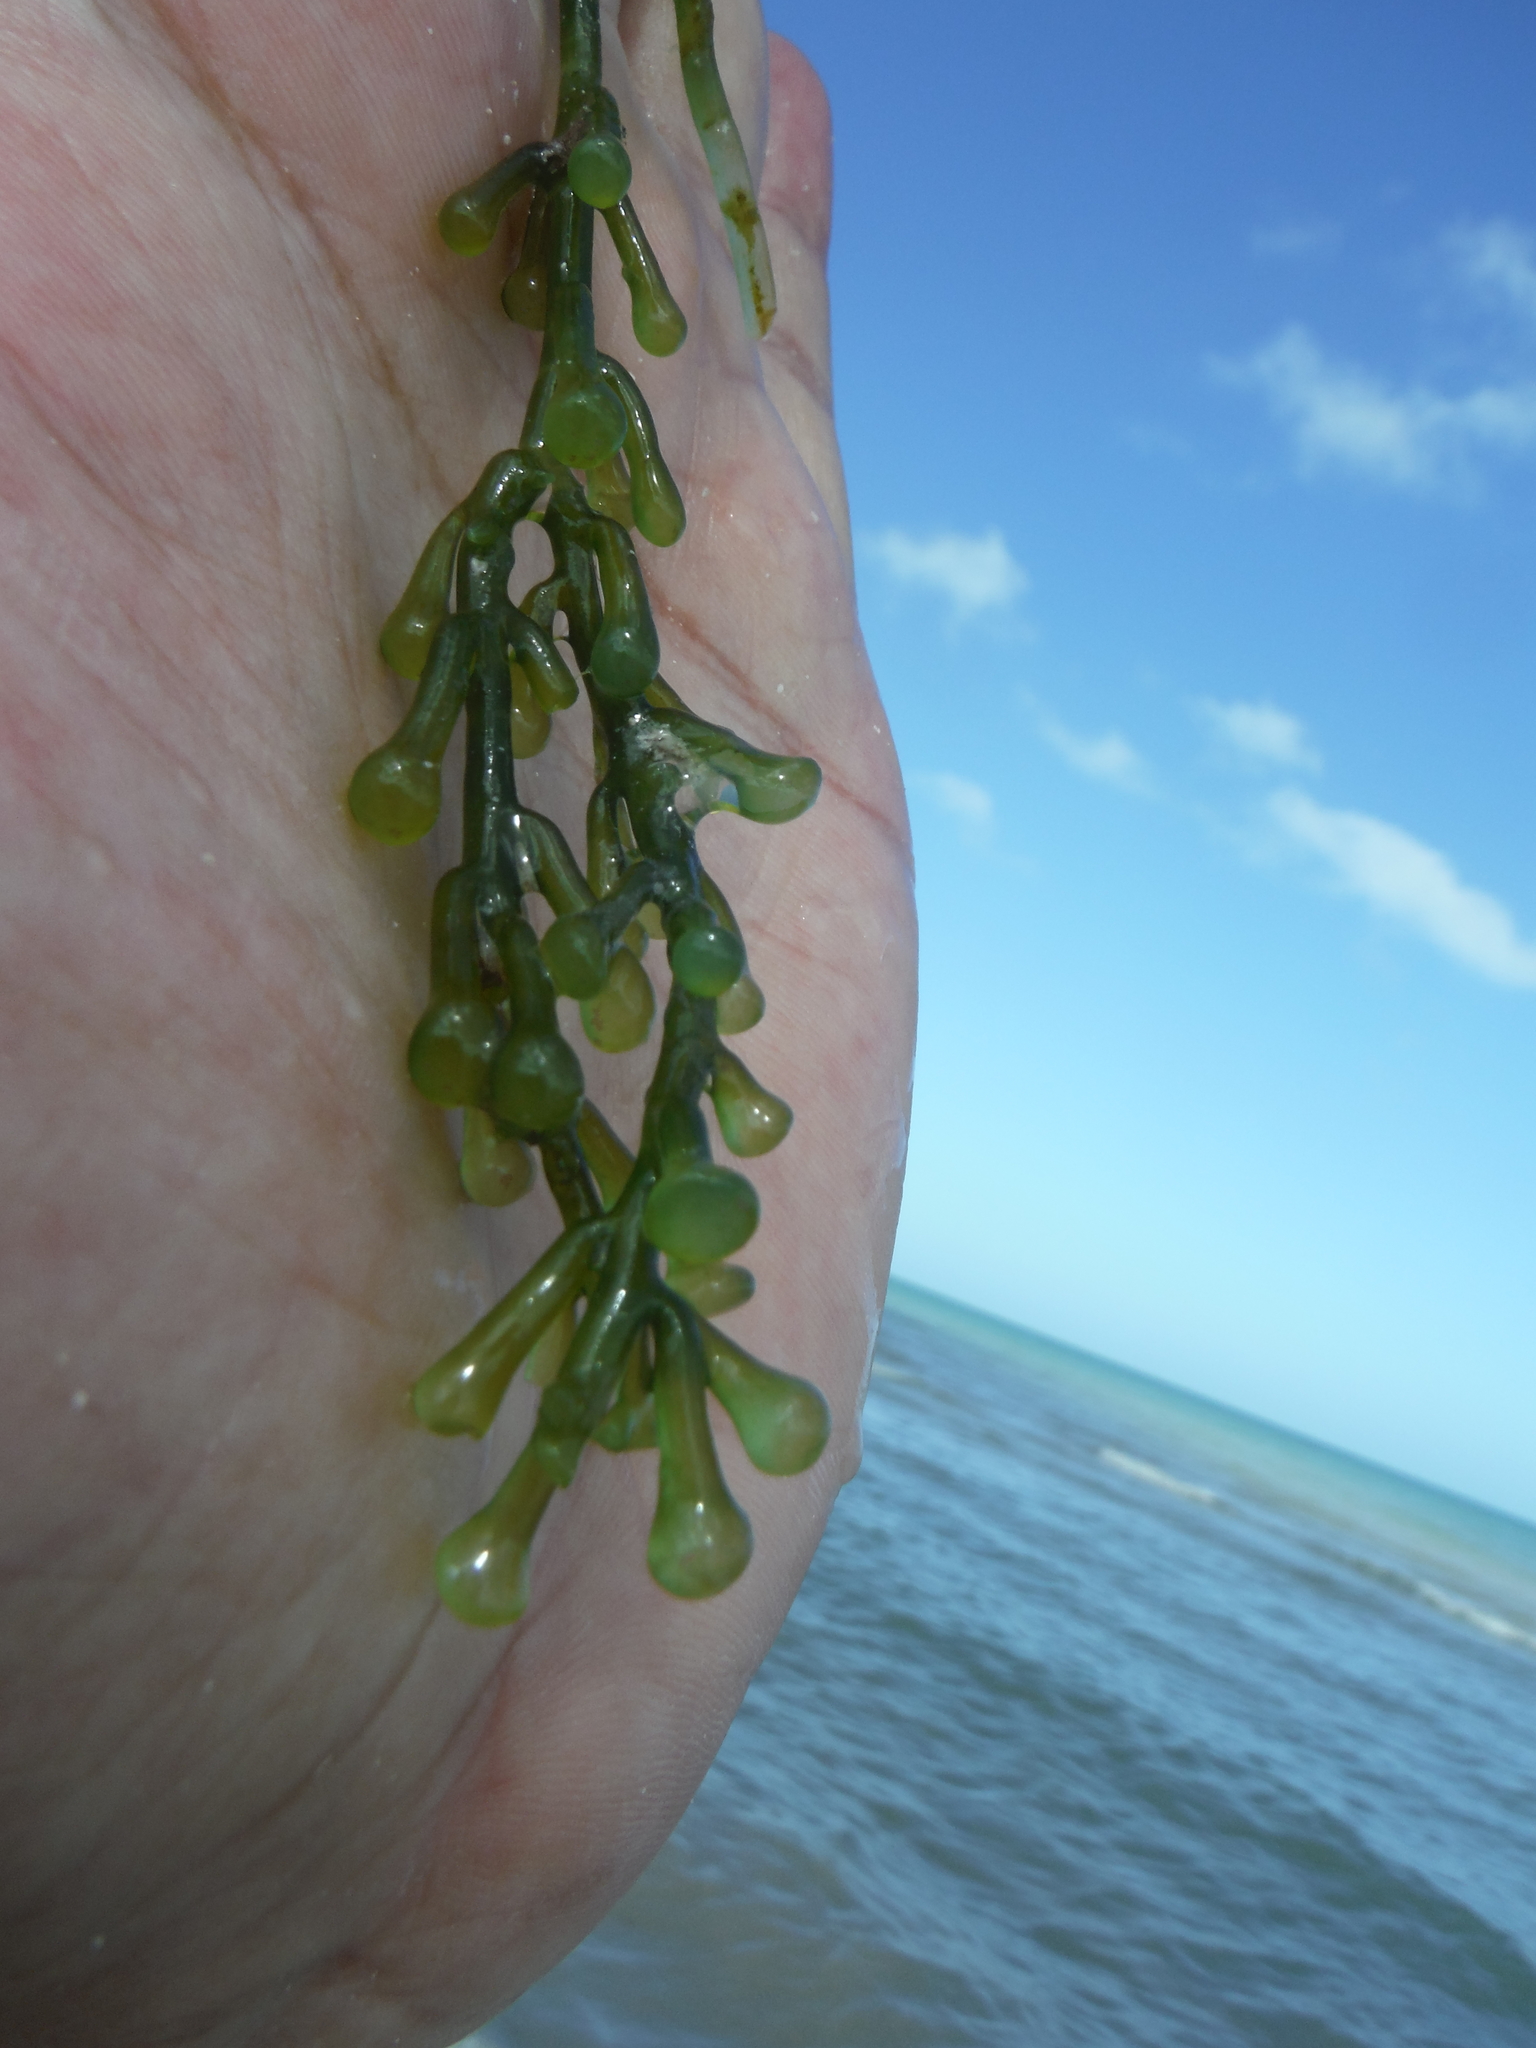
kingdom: Plantae
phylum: Chlorophyta
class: Ulvophyceae
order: Bryopsidales
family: Caulerpaceae
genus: Caulerpa
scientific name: Caulerpa racemosa
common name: Green grape algae
